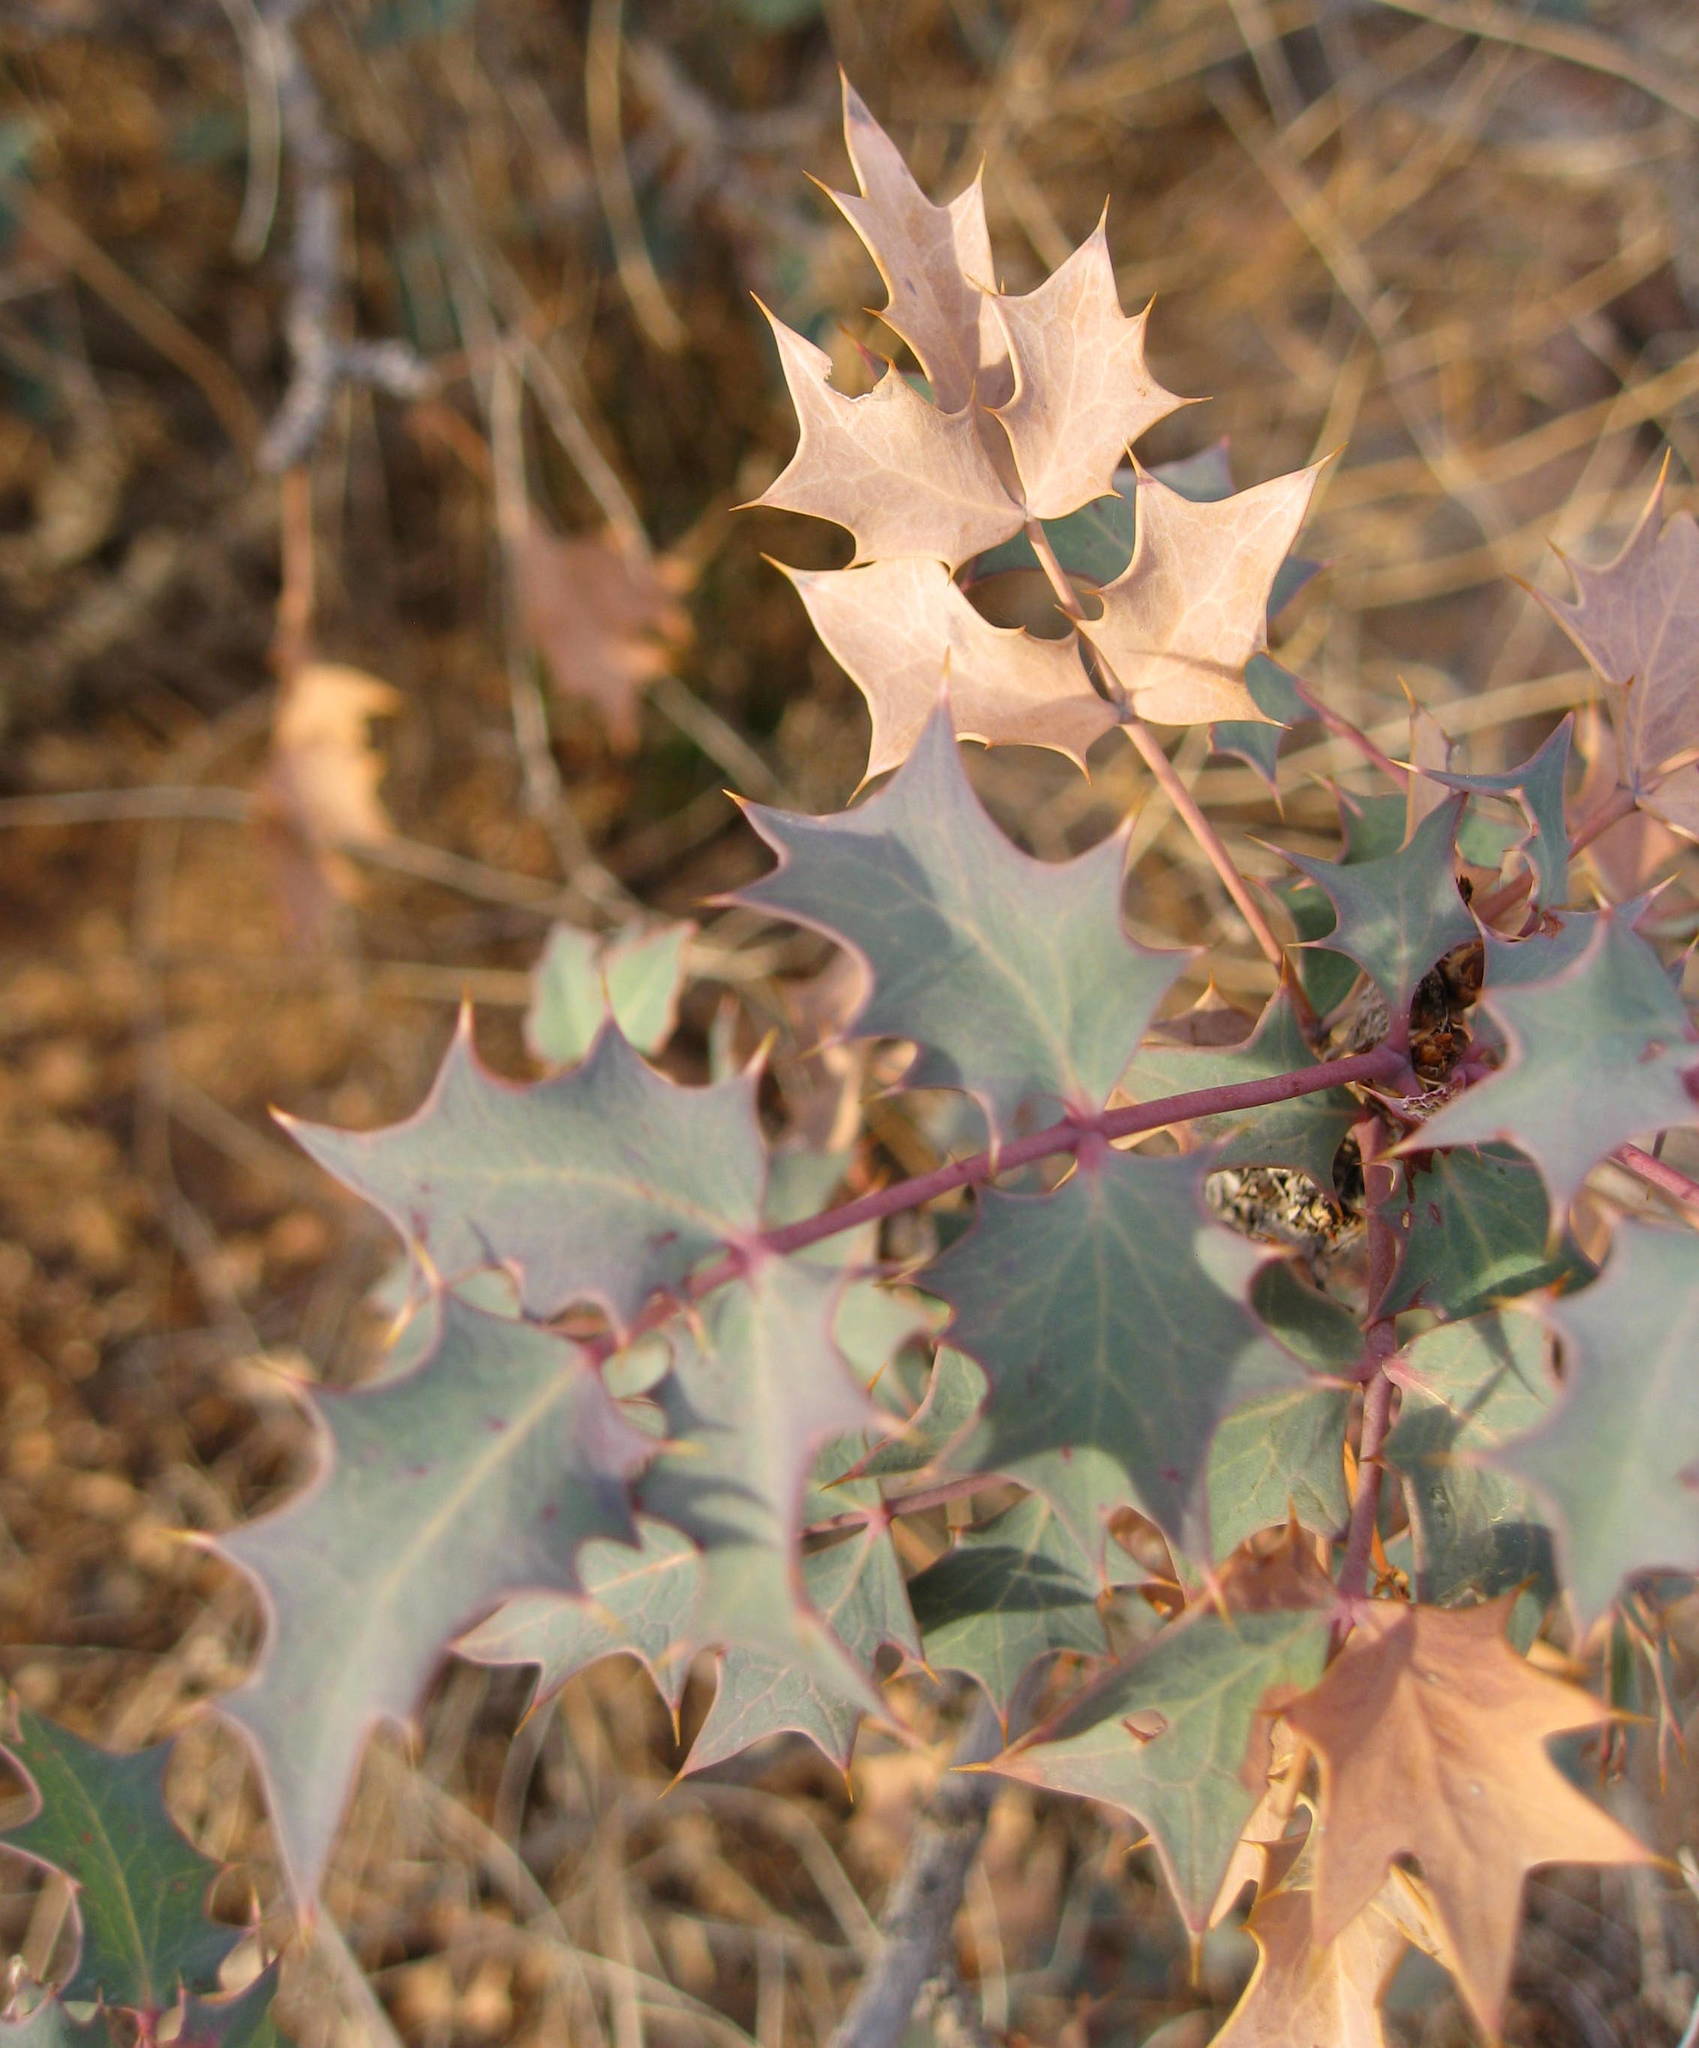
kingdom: Plantae
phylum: Tracheophyta
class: Magnoliopsida
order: Ranunculales
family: Berberidaceae
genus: Alloberberis
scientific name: Alloberberis fremontii
